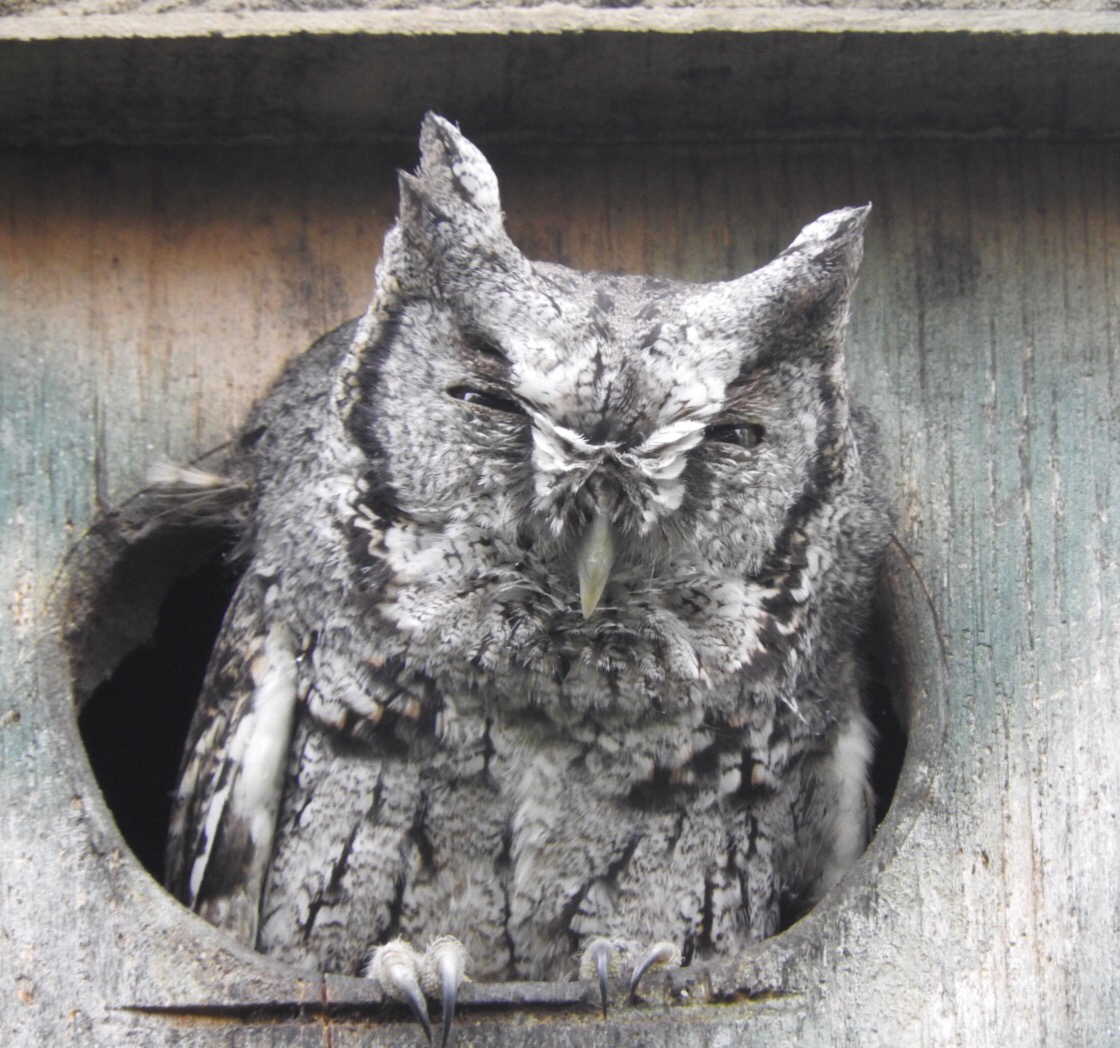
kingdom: Animalia
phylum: Chordata
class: Aves
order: Strigiformes
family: Strigidae
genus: Megascops
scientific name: Megascops asio
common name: Eastern screech-owl
